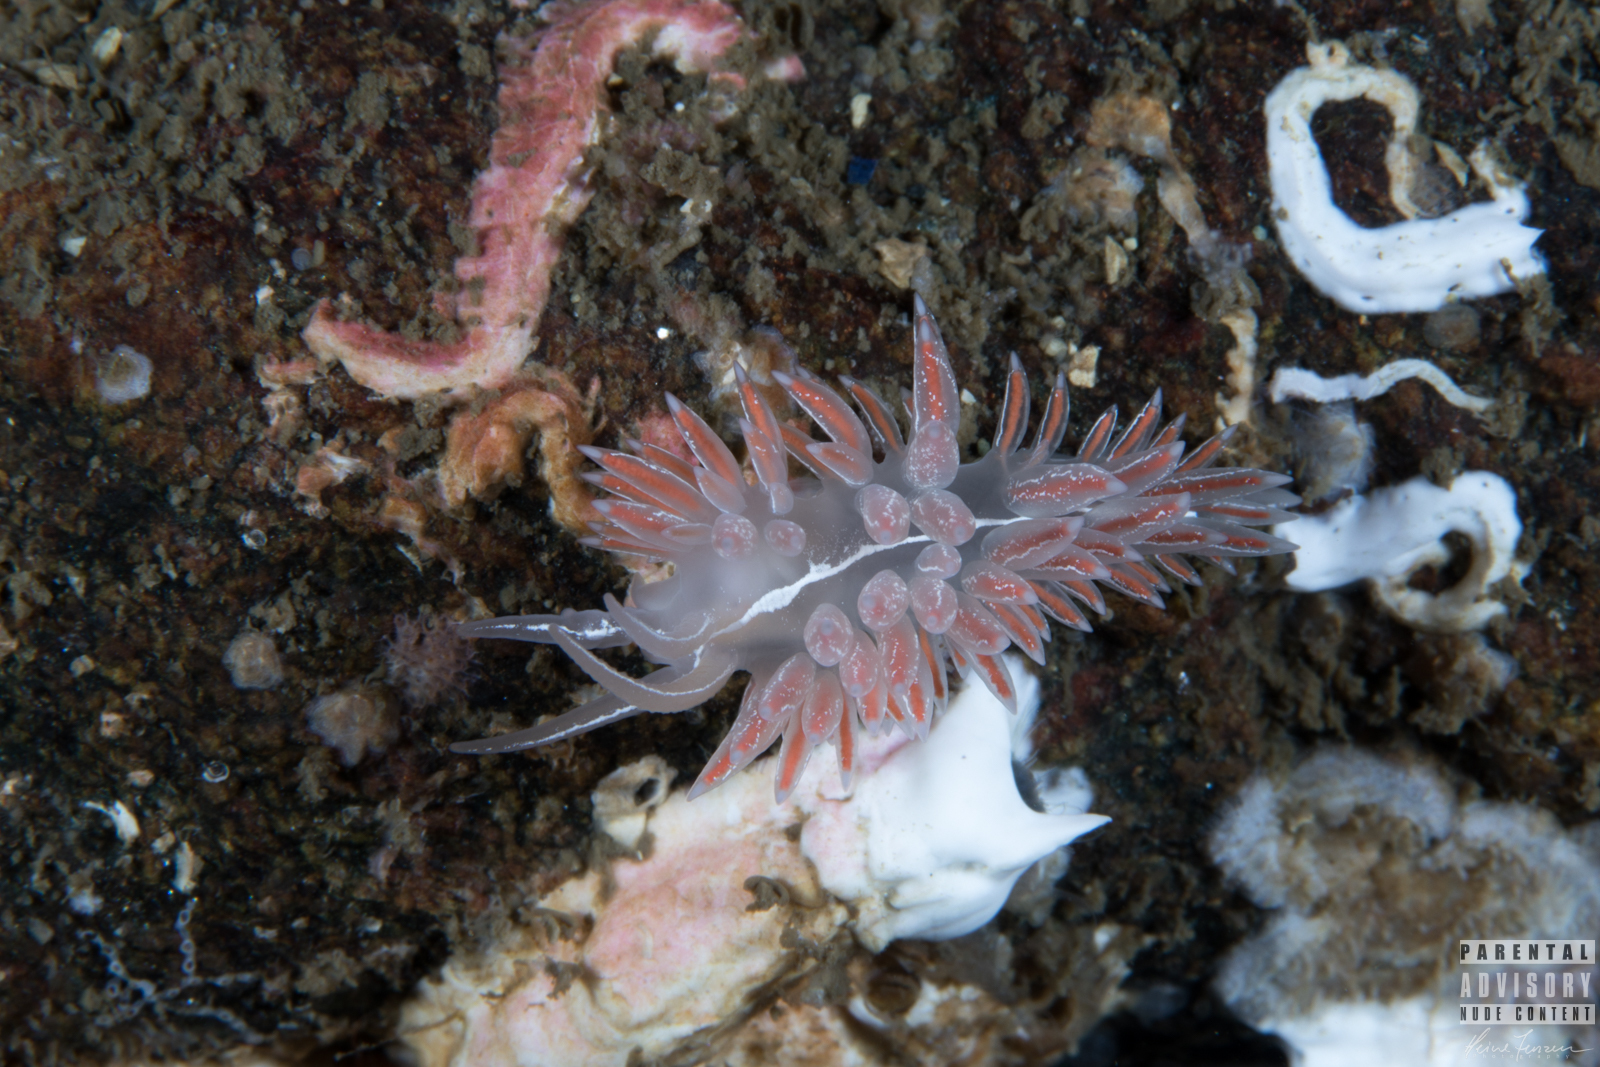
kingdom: Animalia
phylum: Mollusca
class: Gastropoda
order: Nudibranchia
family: Coryphellidae
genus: Coryphella
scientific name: Coryphella chriskaugei
